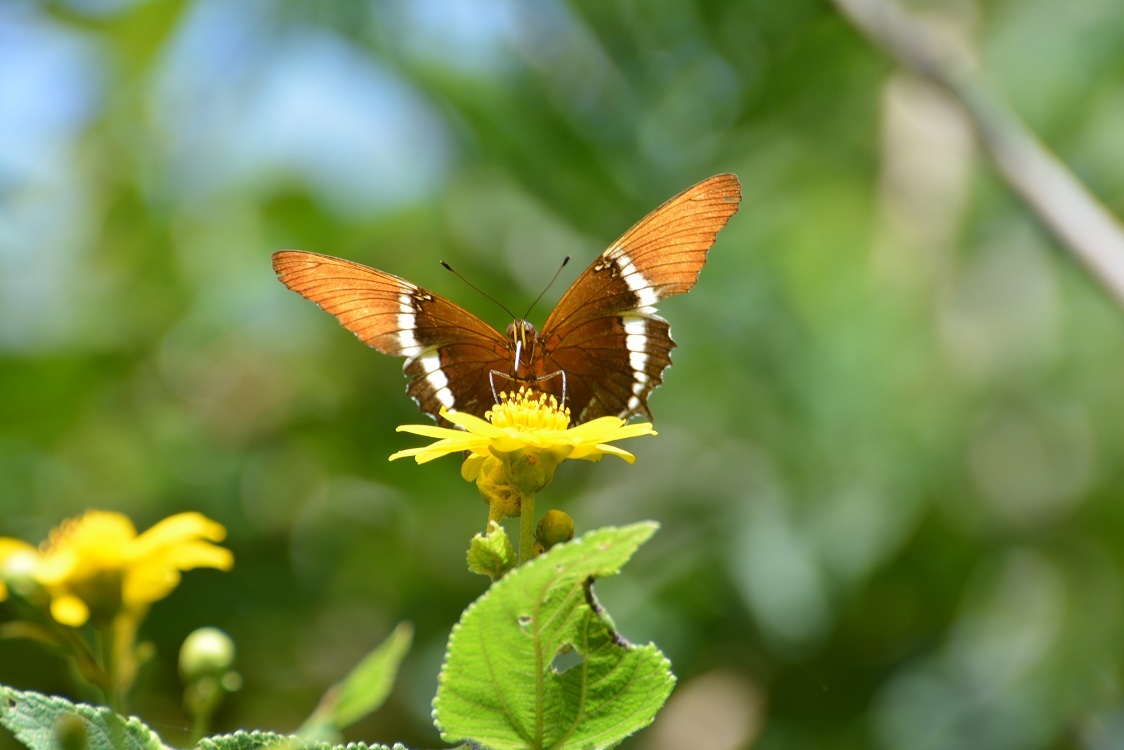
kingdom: Animalia
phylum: Arthropoda
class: Insecta
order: Lepidoptera
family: Nymphalidae
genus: Siproeta
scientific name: Siproeta epaphus
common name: Rusty-tipped page
